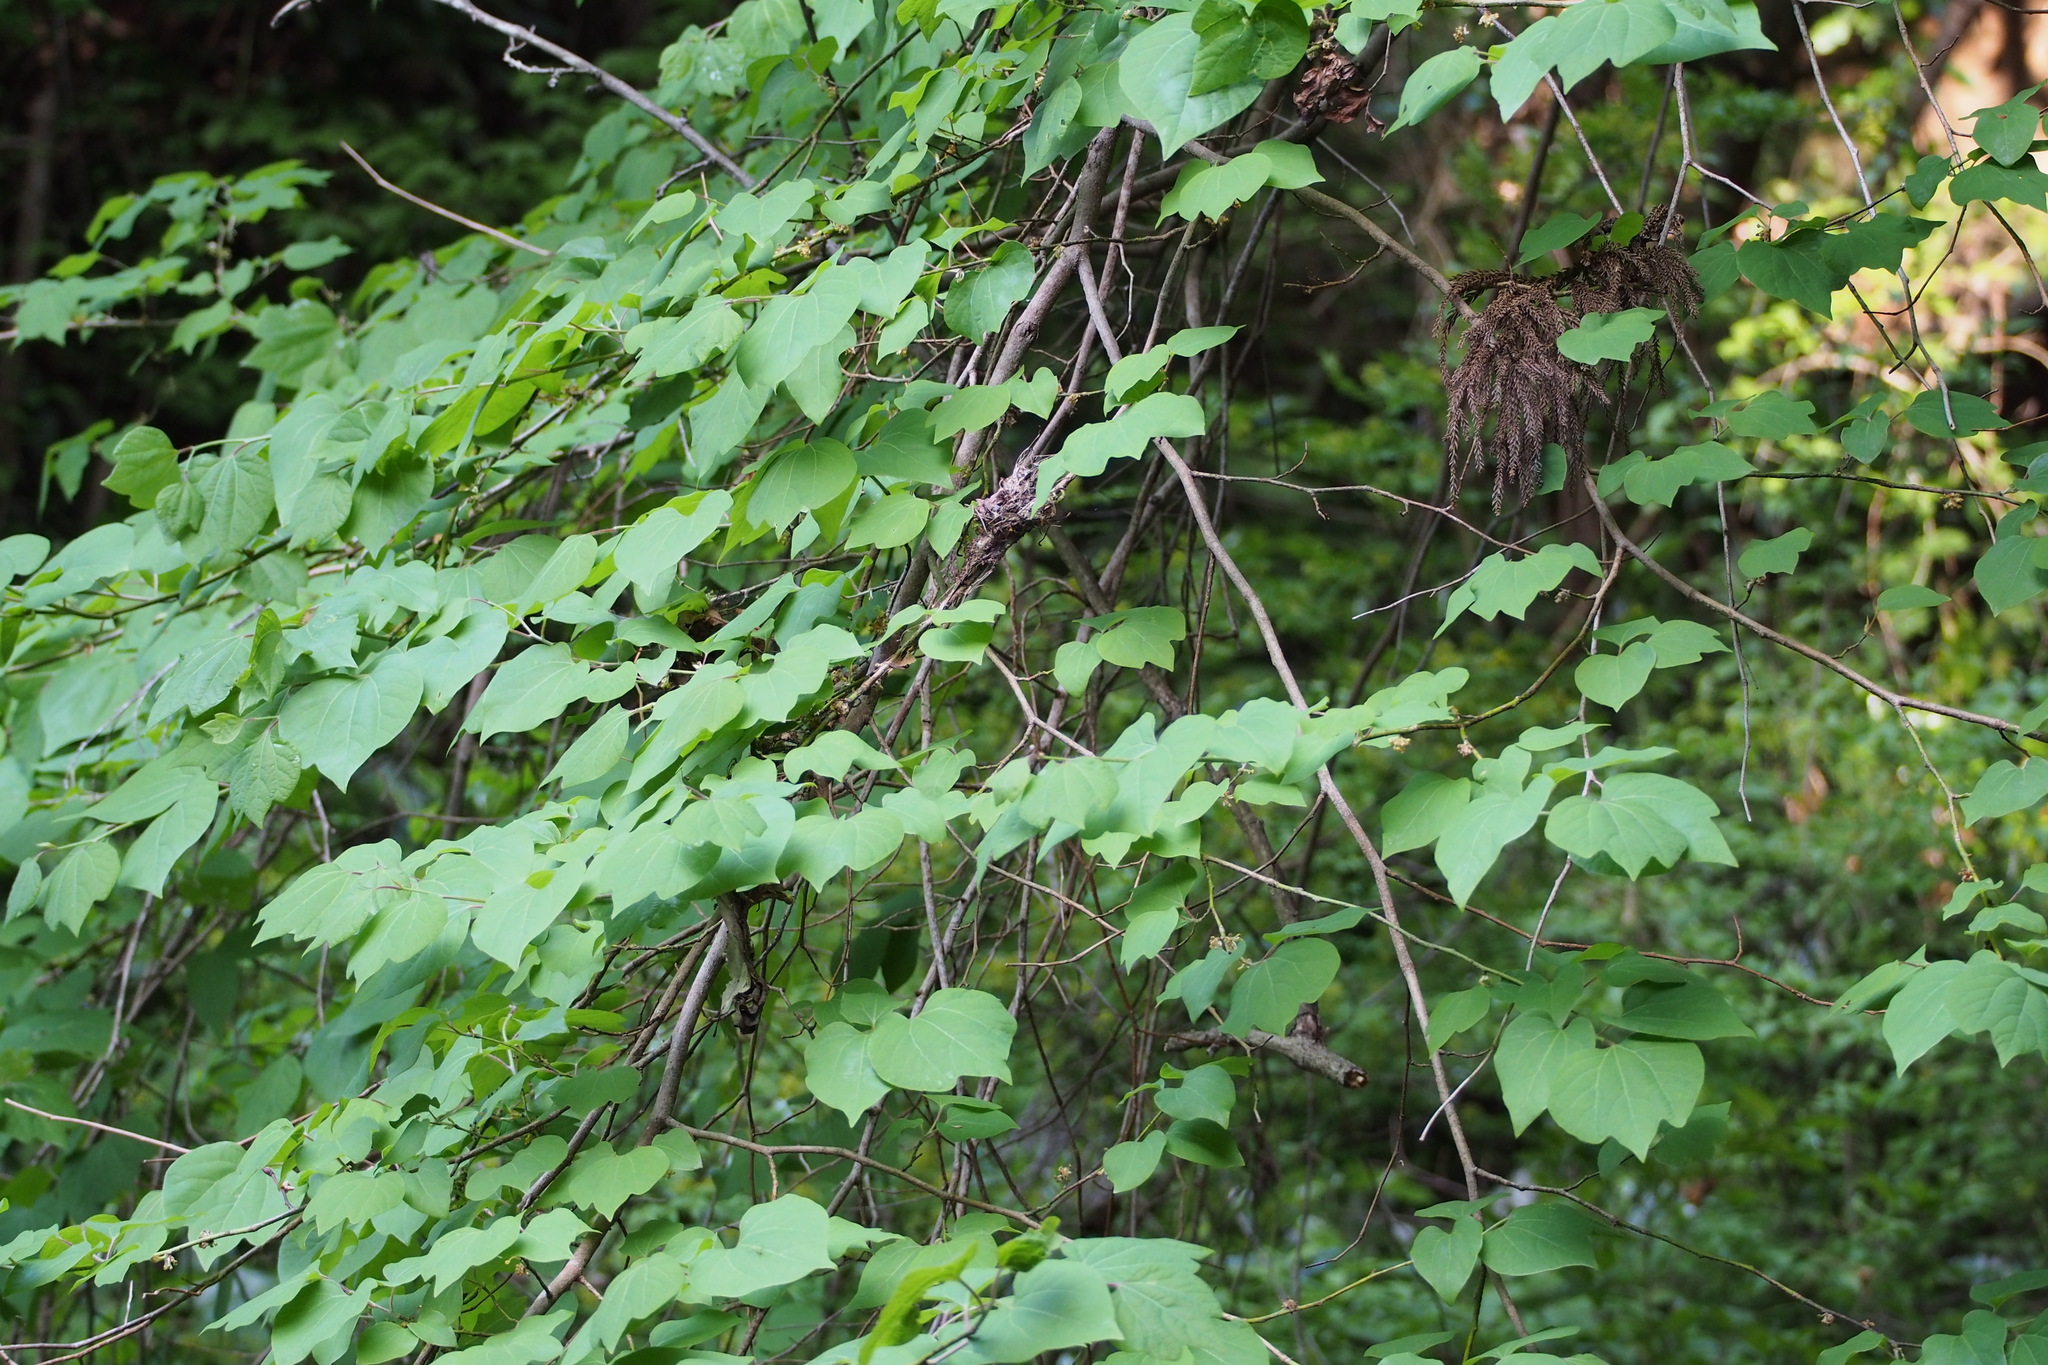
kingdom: Plantae
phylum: Tracheophyta
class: Magnoliopsida
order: Laurales
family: Lauraceae
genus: Lindera
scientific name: Lindera obtusiloba
